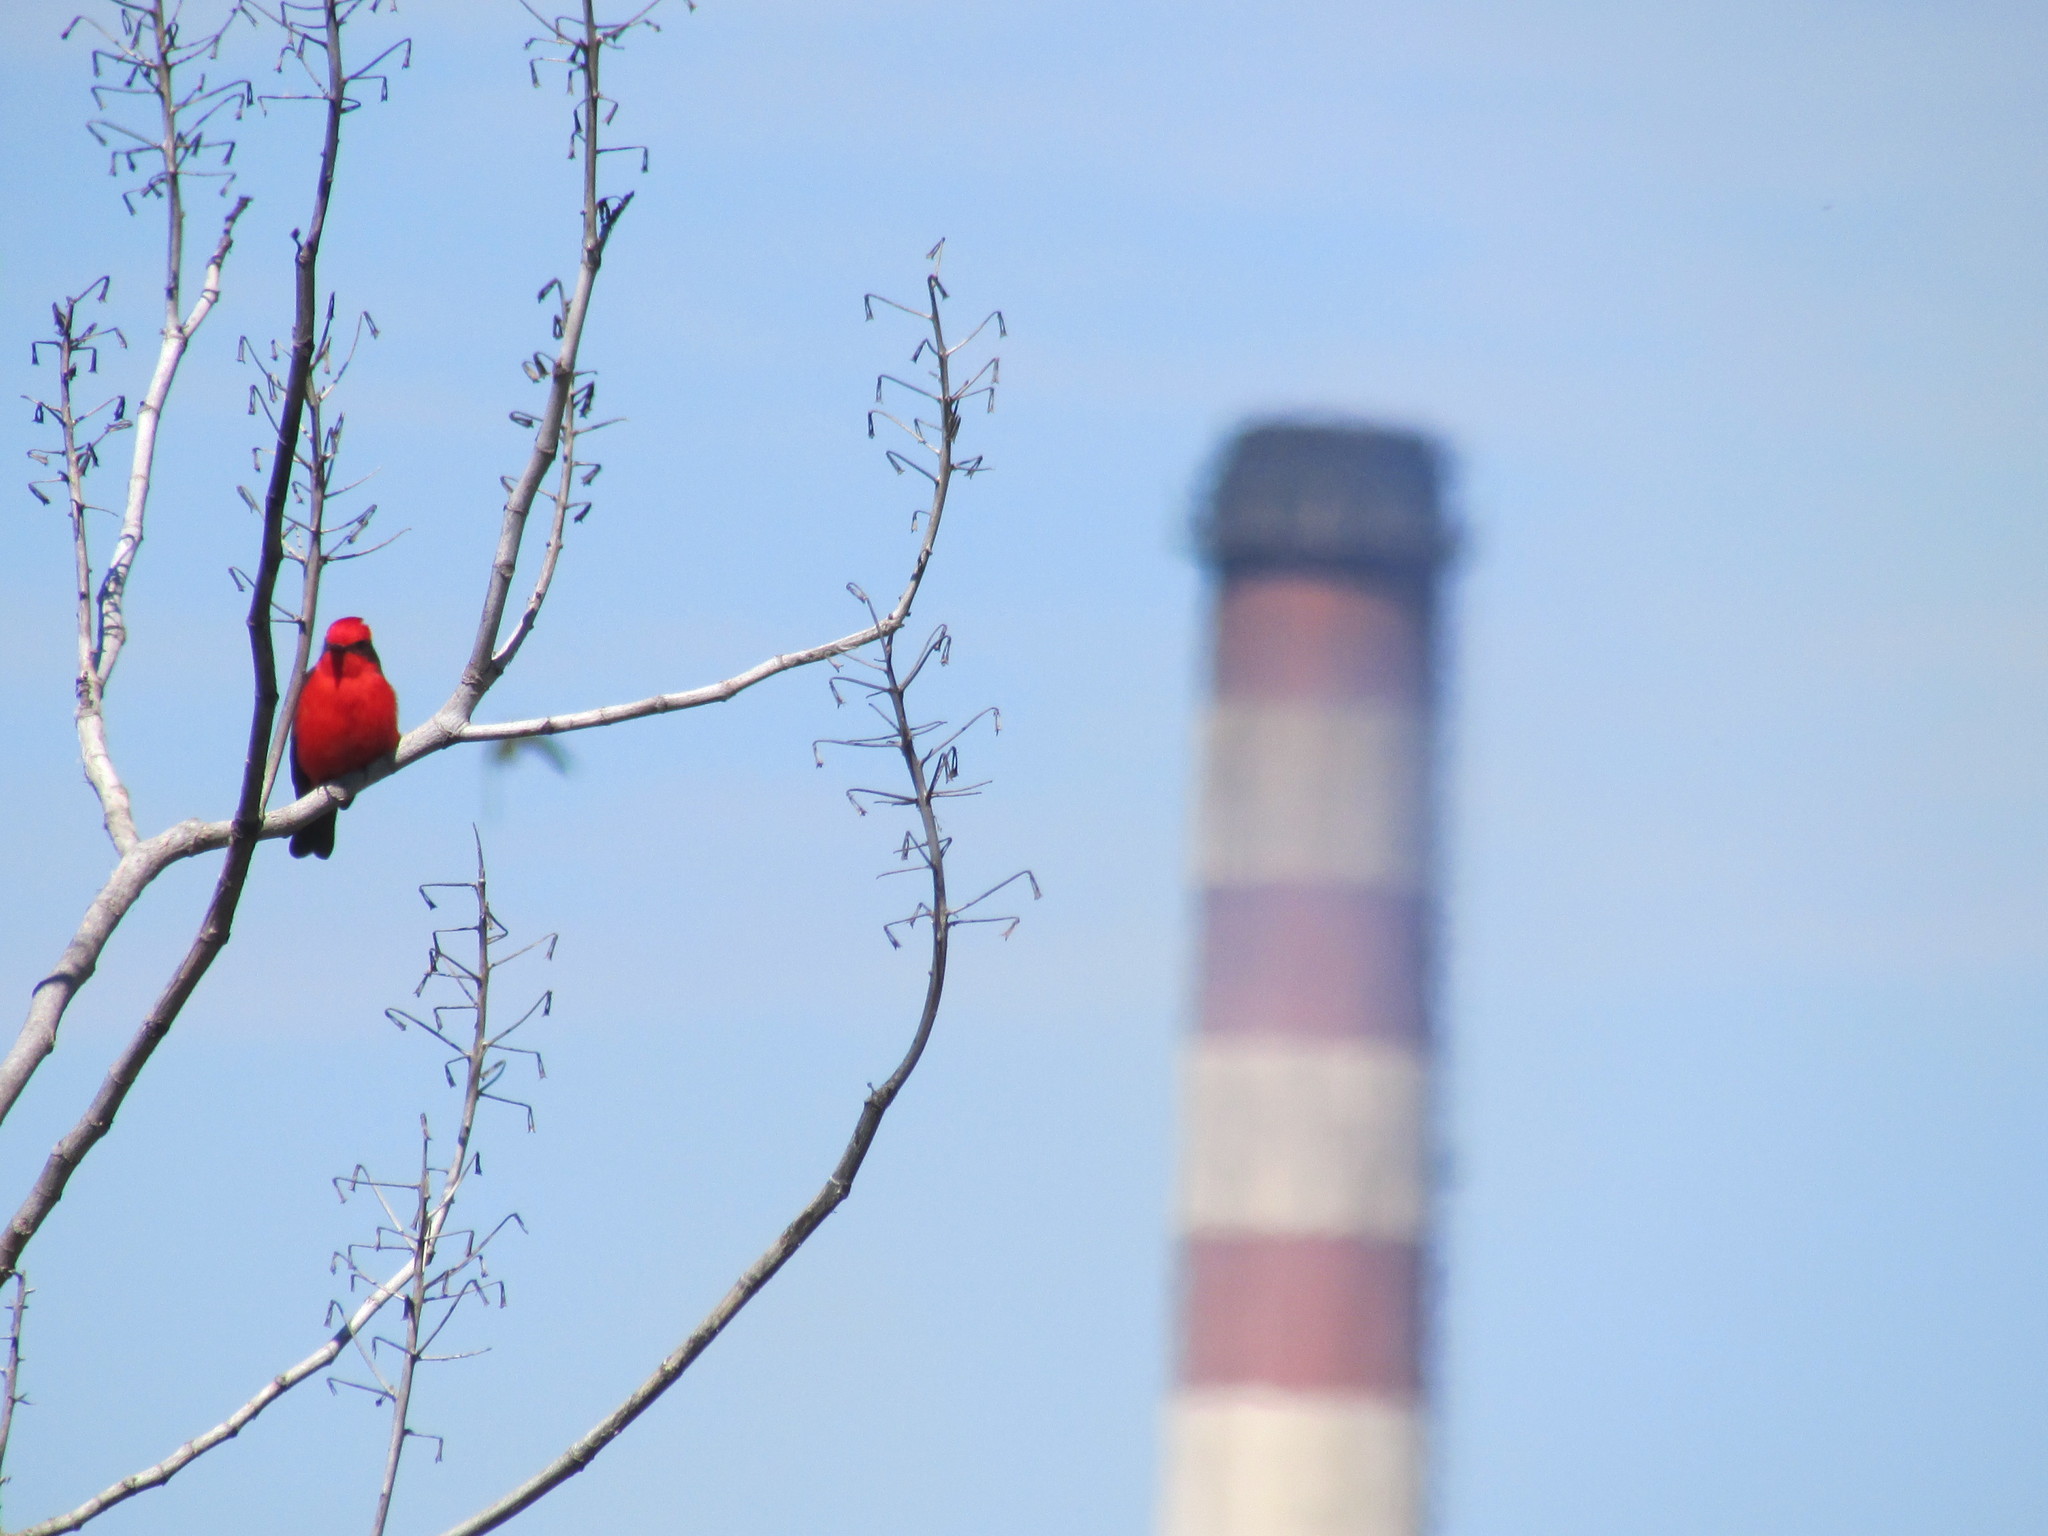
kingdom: Animalia
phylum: Chordata
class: Aves
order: Passeriformes
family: Tyrannidae
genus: Pyrocephalus
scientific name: Pyrocephalus rubinus
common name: Vermilion flycatcher
